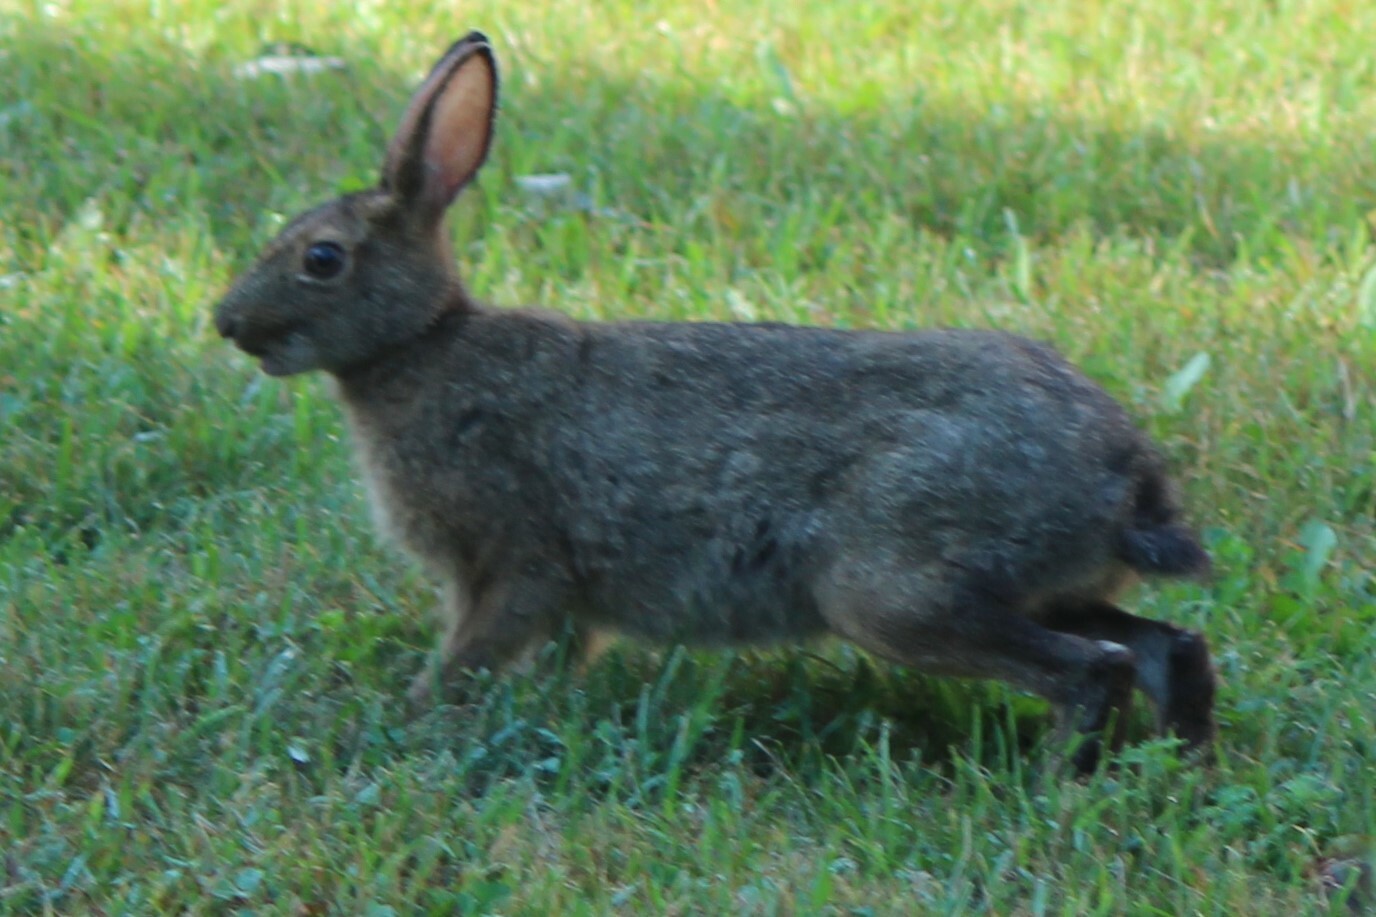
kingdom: Animalia
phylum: Chordata
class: Mammalia
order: Lagomorpha
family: Leporidae
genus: Lepus
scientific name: Lepus americanus
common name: Snowshoe hare
